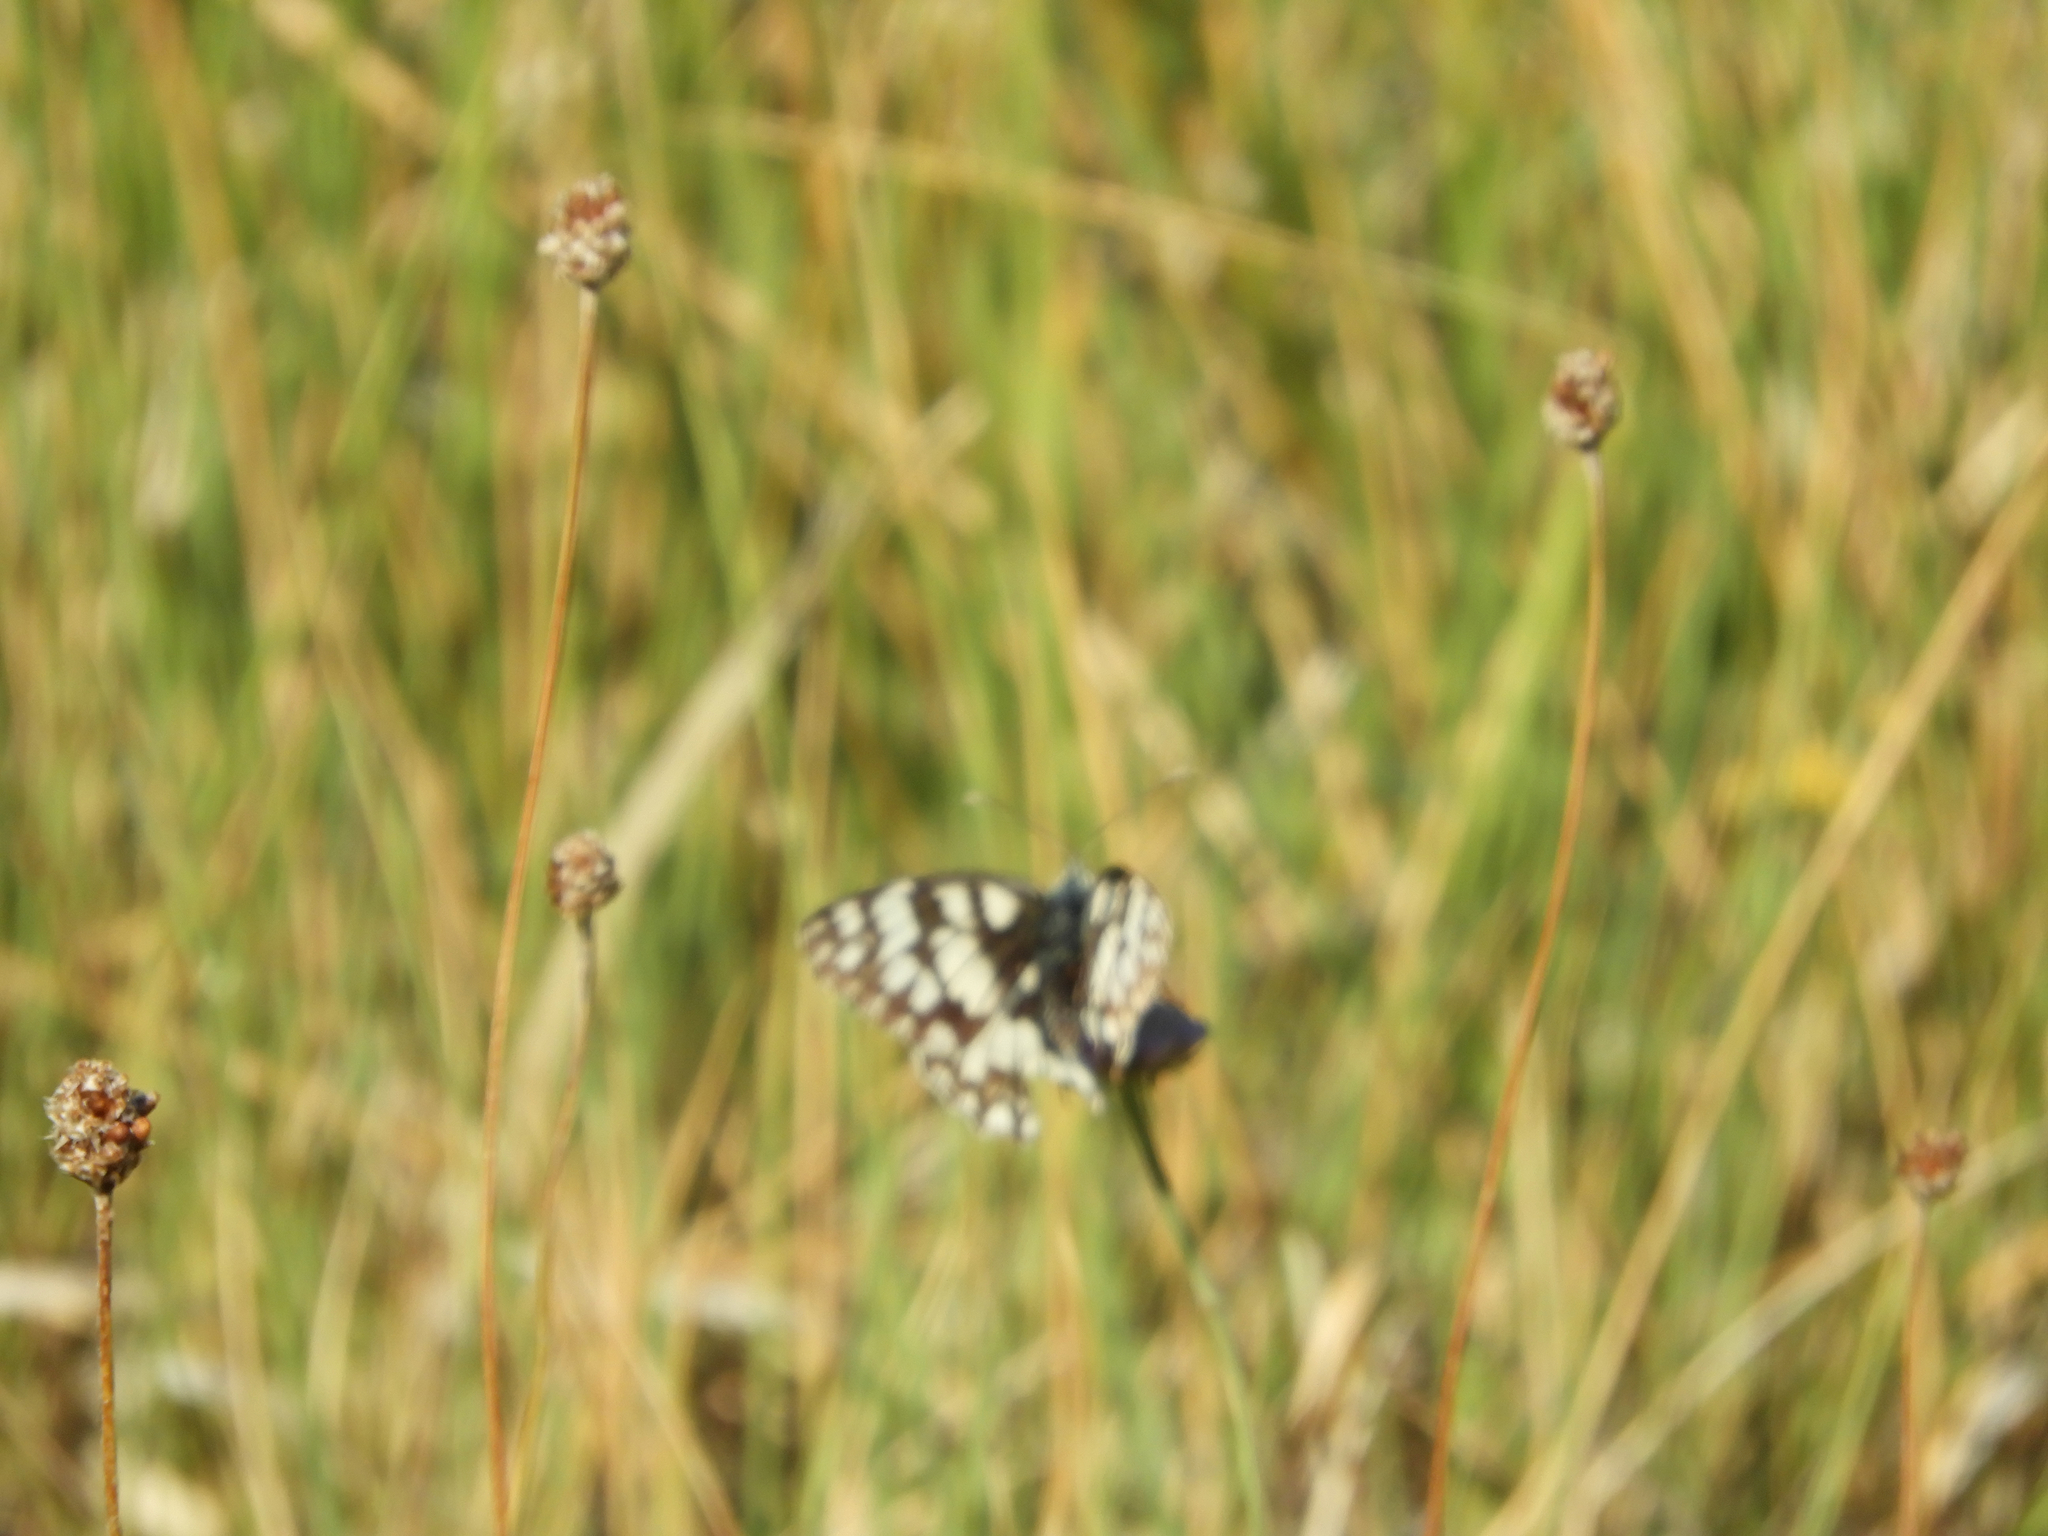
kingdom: Animalia
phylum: Arthropoda
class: Insecta
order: Lepidoptera
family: Nymphalidae
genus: Melanargia
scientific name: Melanargia japygia
